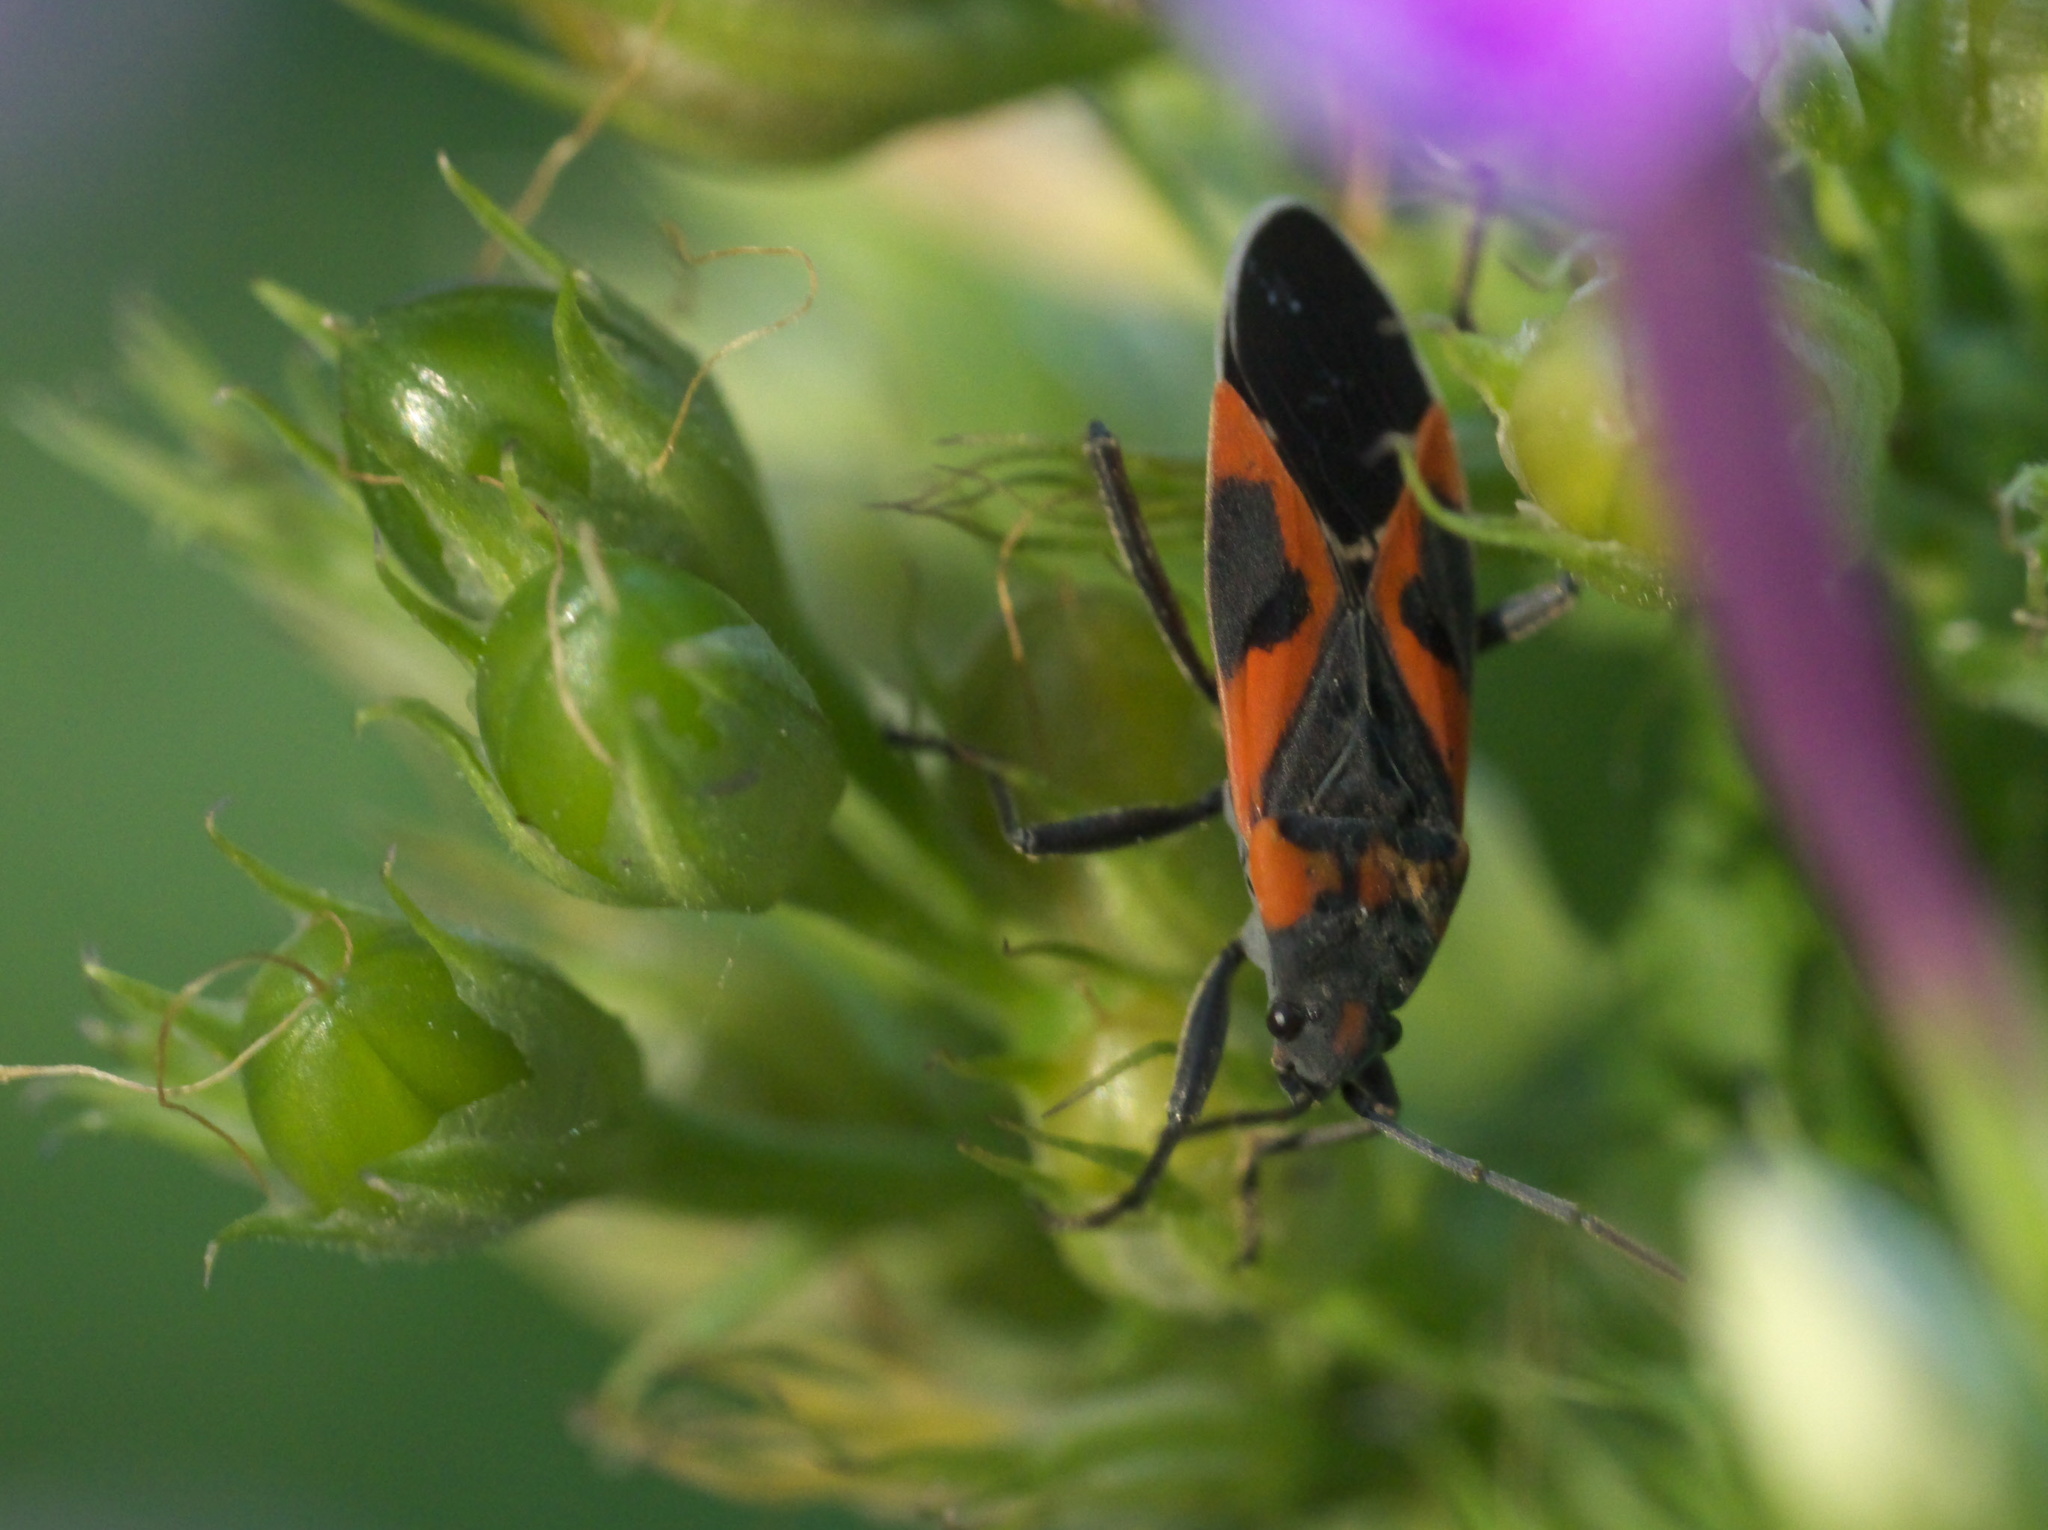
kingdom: Animalia
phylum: Arthropoda
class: Insecta
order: Hemiptera
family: Lygaeidae
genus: Lygaeus
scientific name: Lygaeus kalmii
